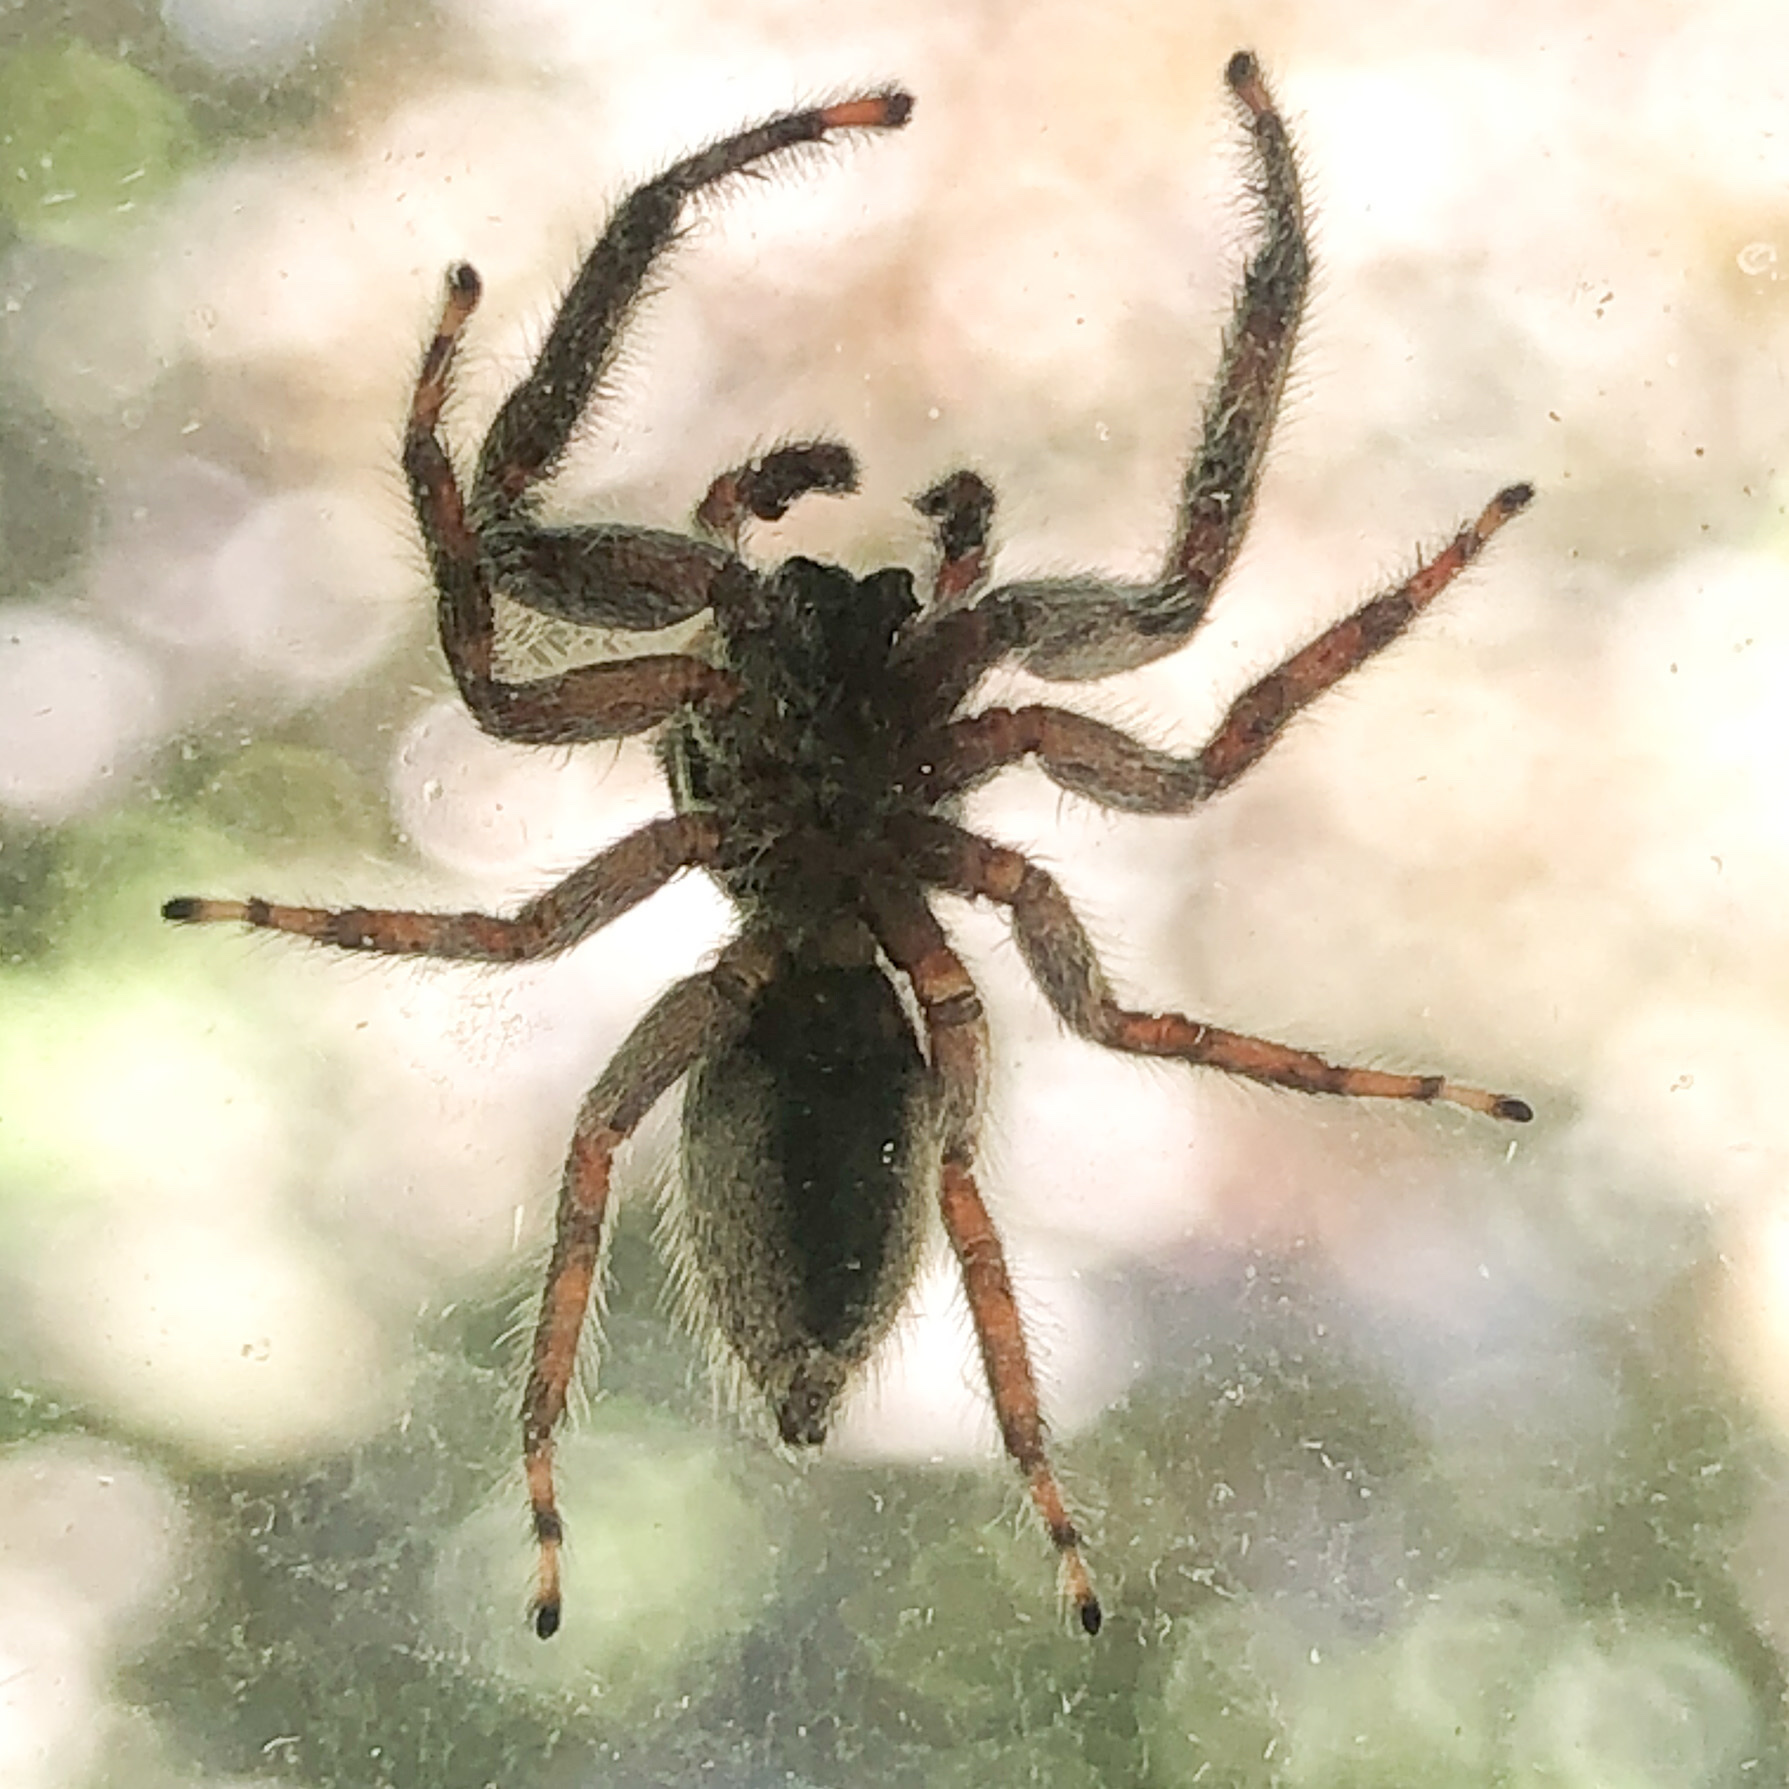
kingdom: Animalia
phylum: Arthropoda
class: Arachnida
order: Araneae
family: Salticidae
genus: Platycryptus
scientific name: Platycryptus undatus
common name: Tan jumping spider
